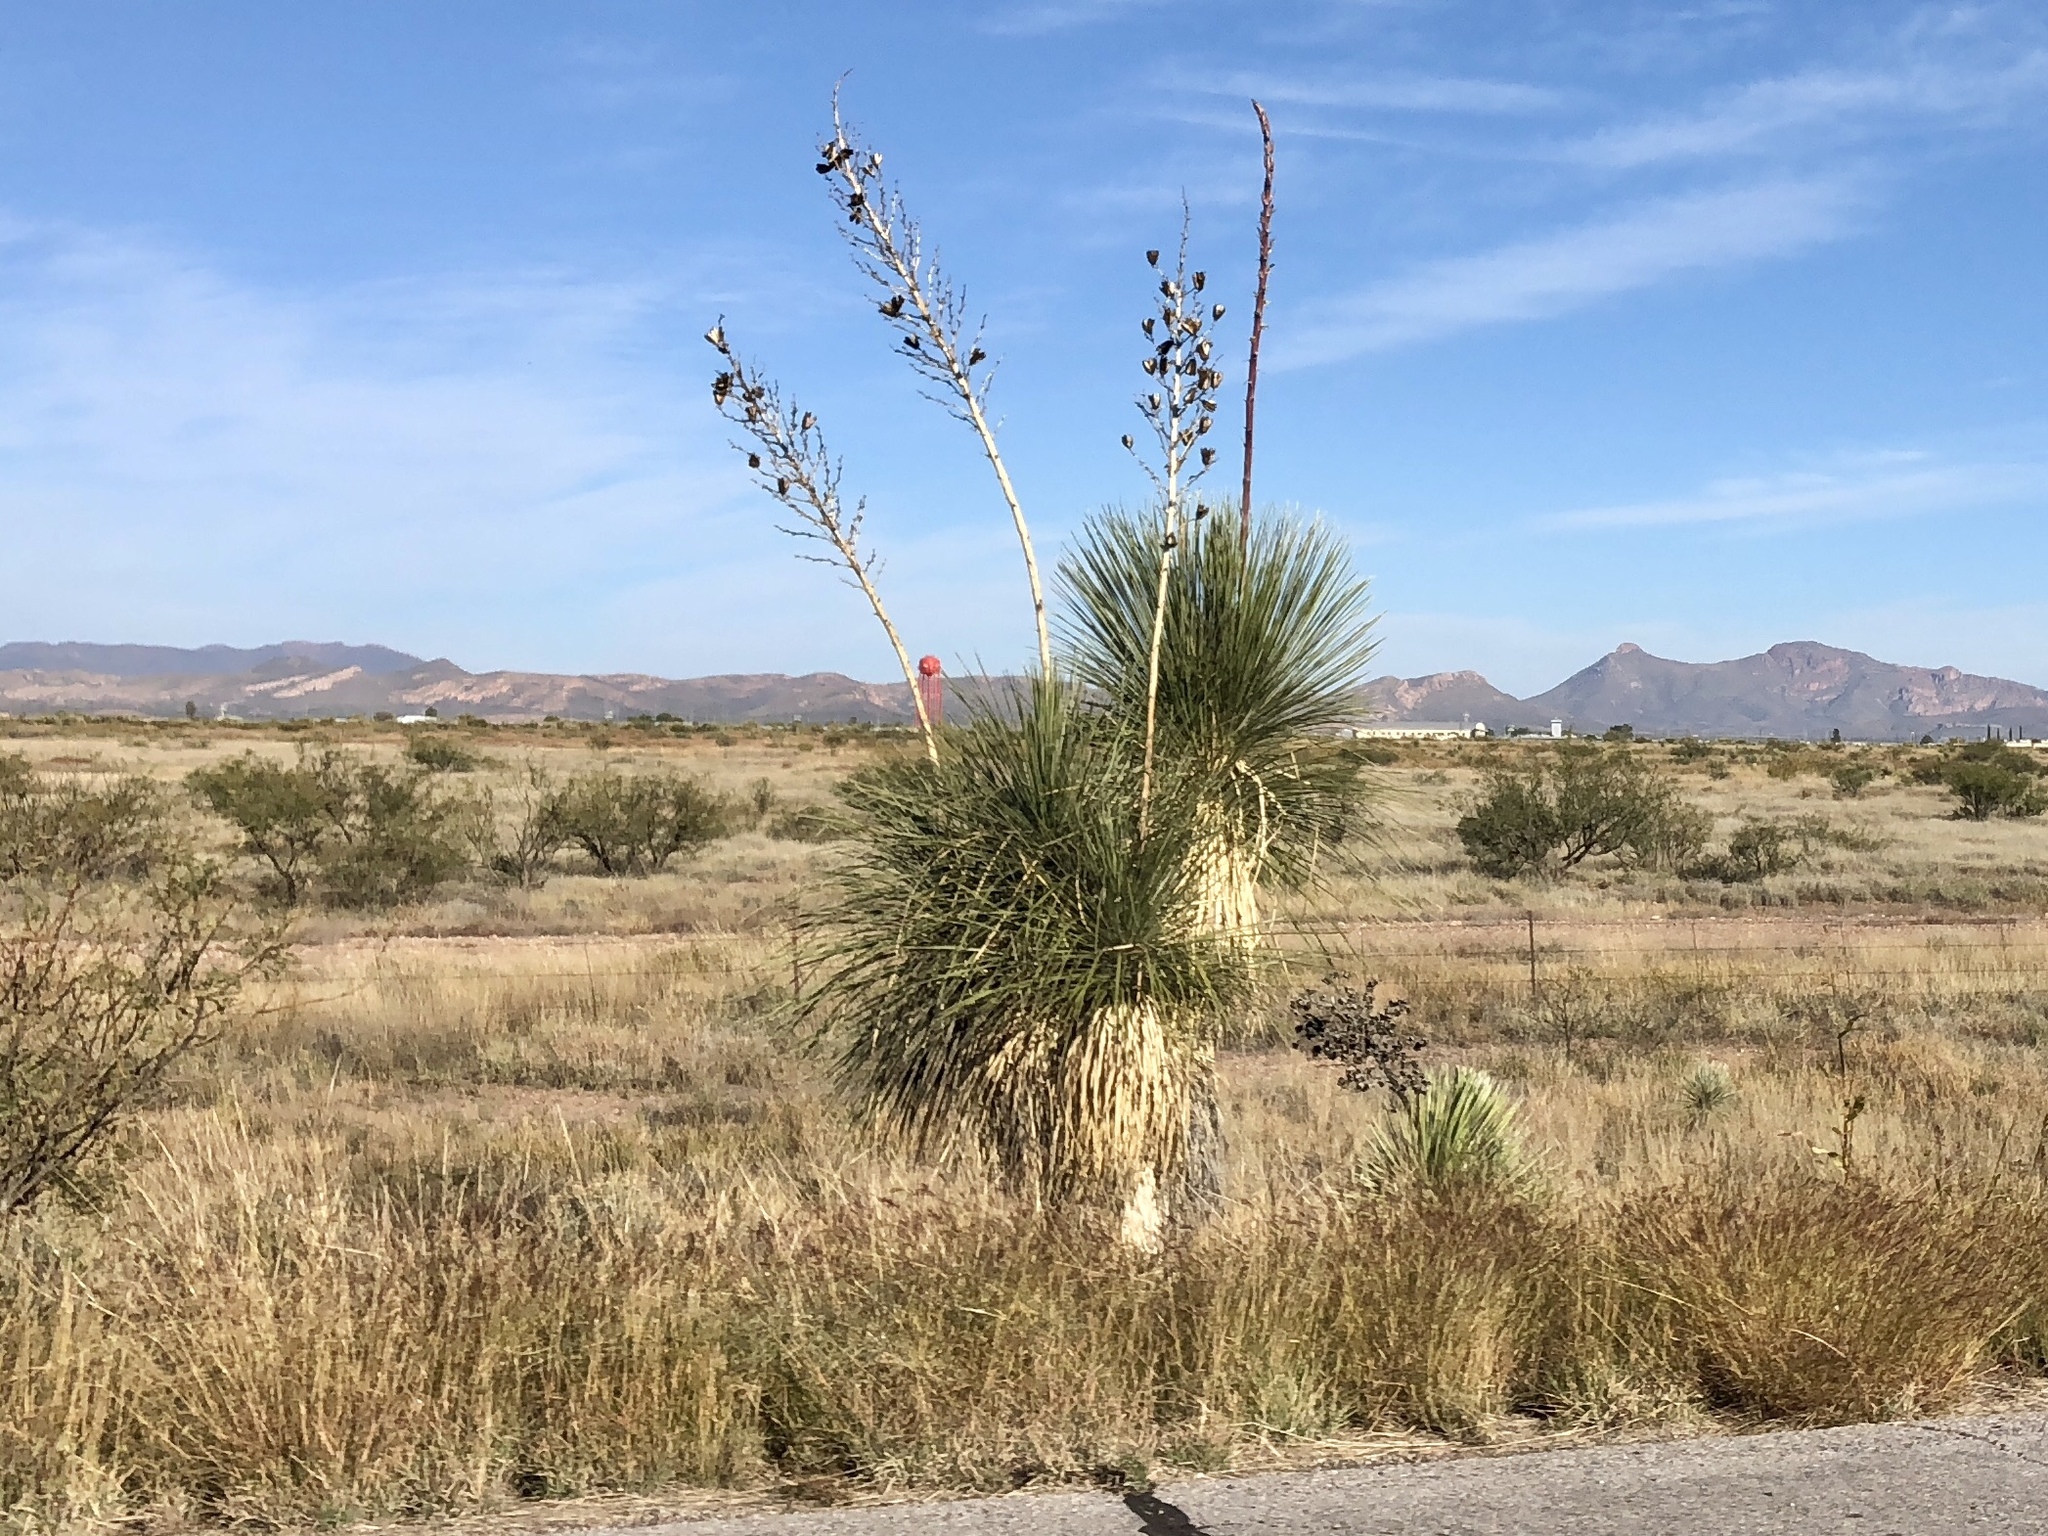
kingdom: Plantae
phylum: Tracheophyta
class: Liliopsida
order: Asparagales
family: Asparagaceae
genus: Yucca
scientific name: Yucca elata
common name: Palmella
